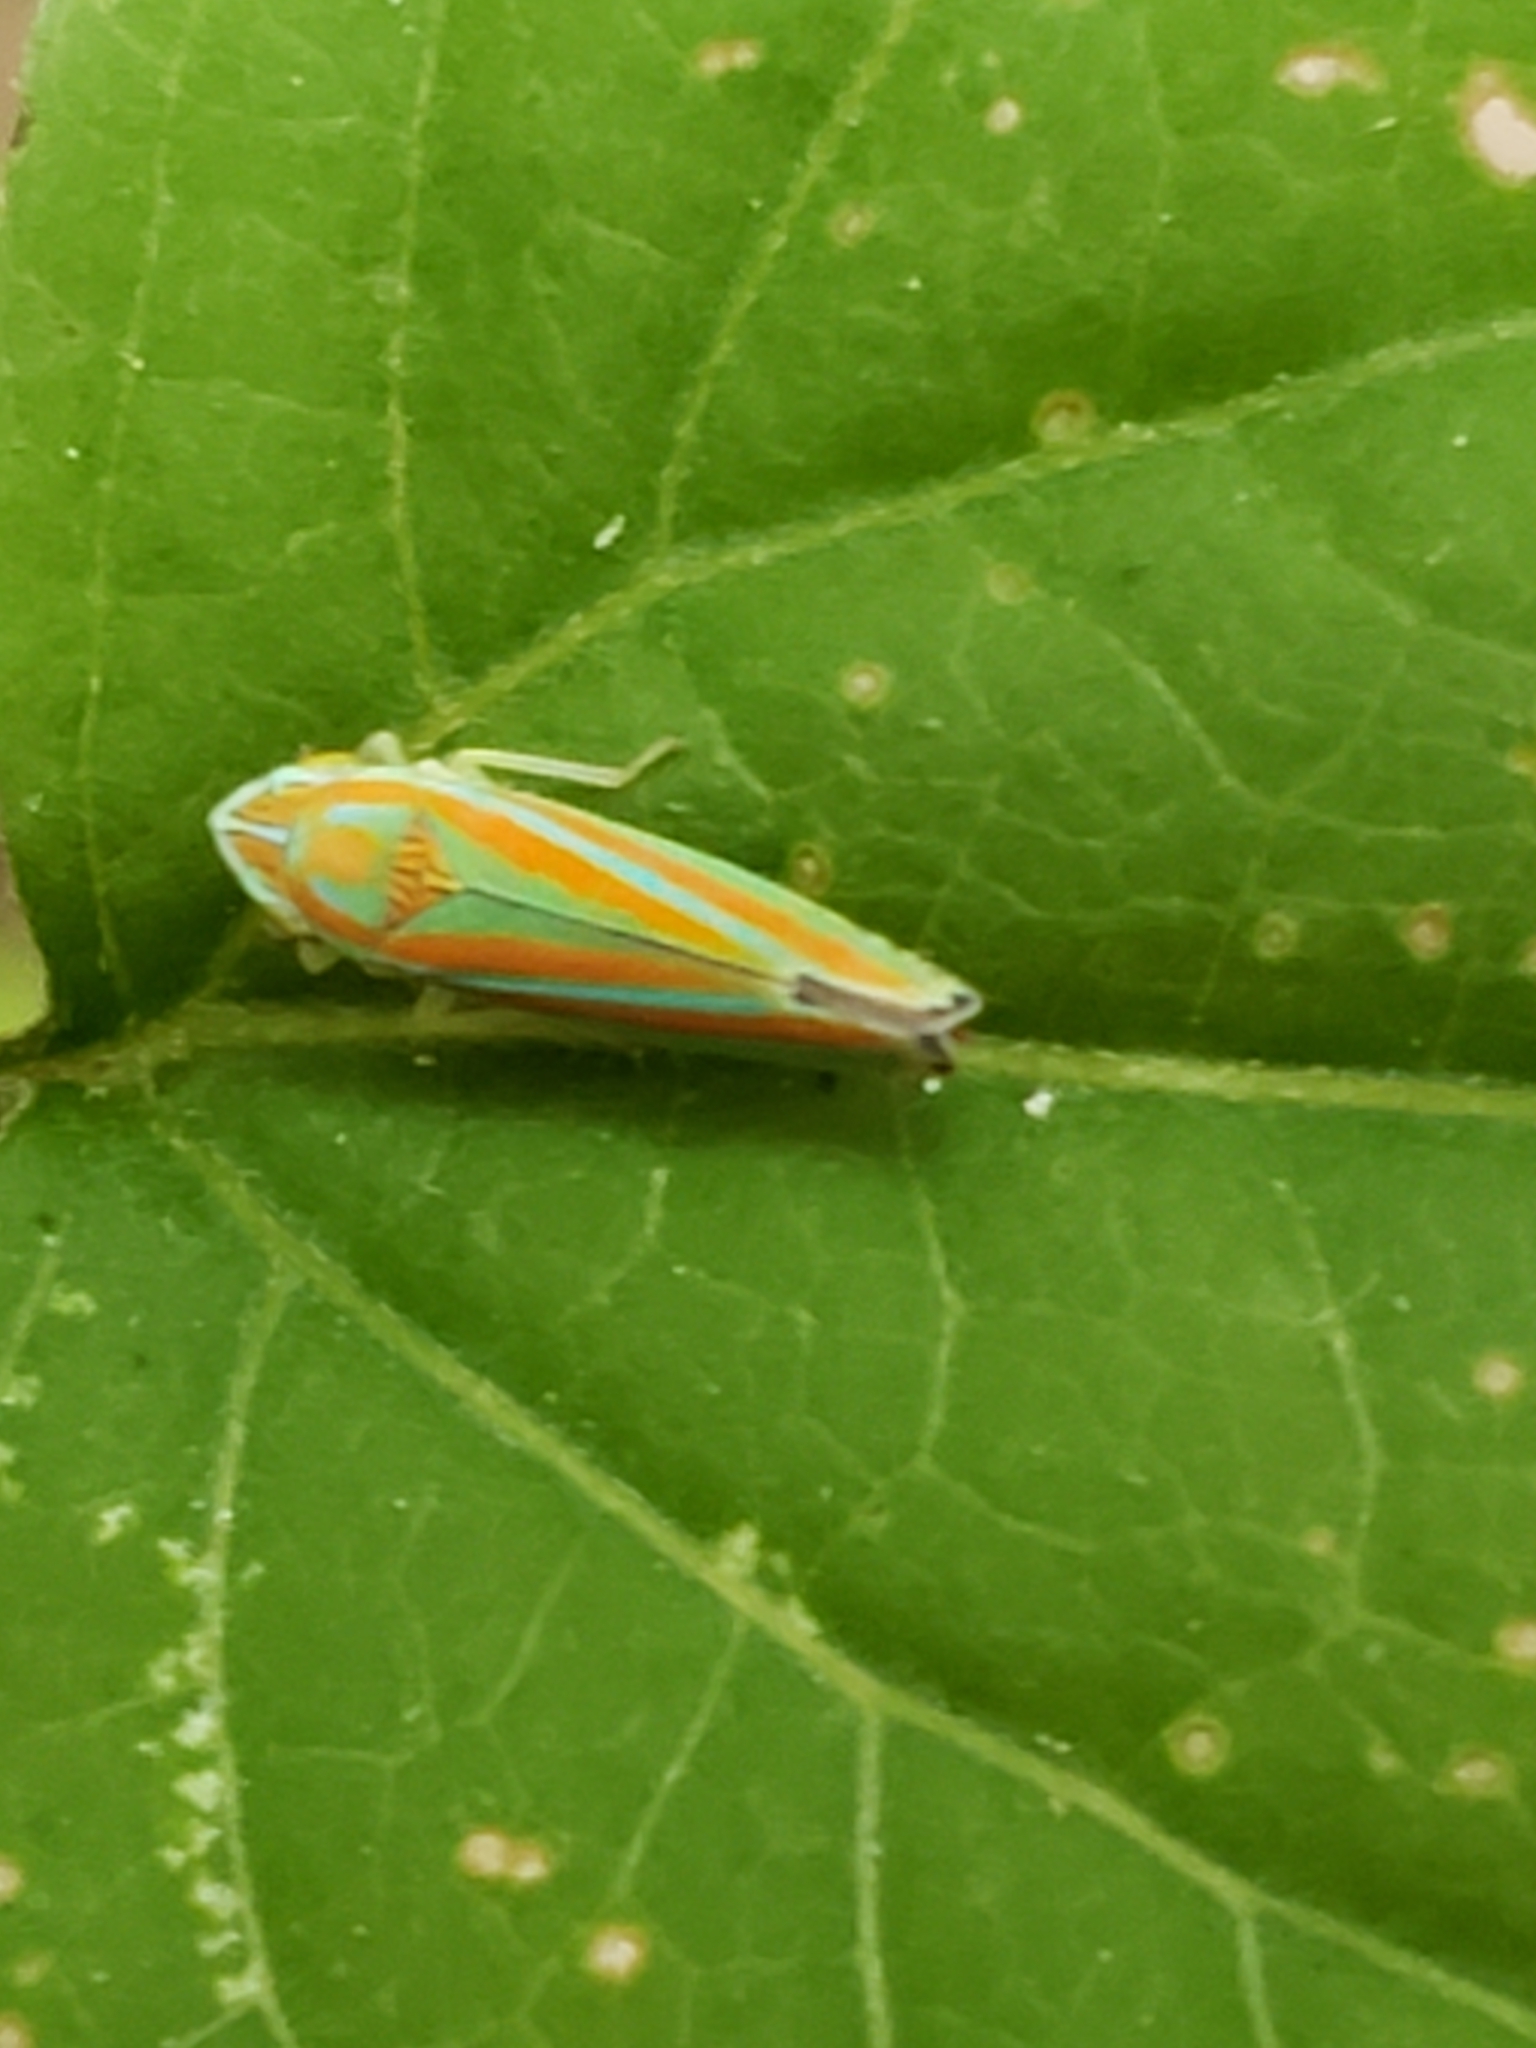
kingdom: Animalia
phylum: Arthropoda
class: Insecta
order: Hemiptera
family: Cicadellidae
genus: Graphocephala
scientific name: Graphocephala versuta
